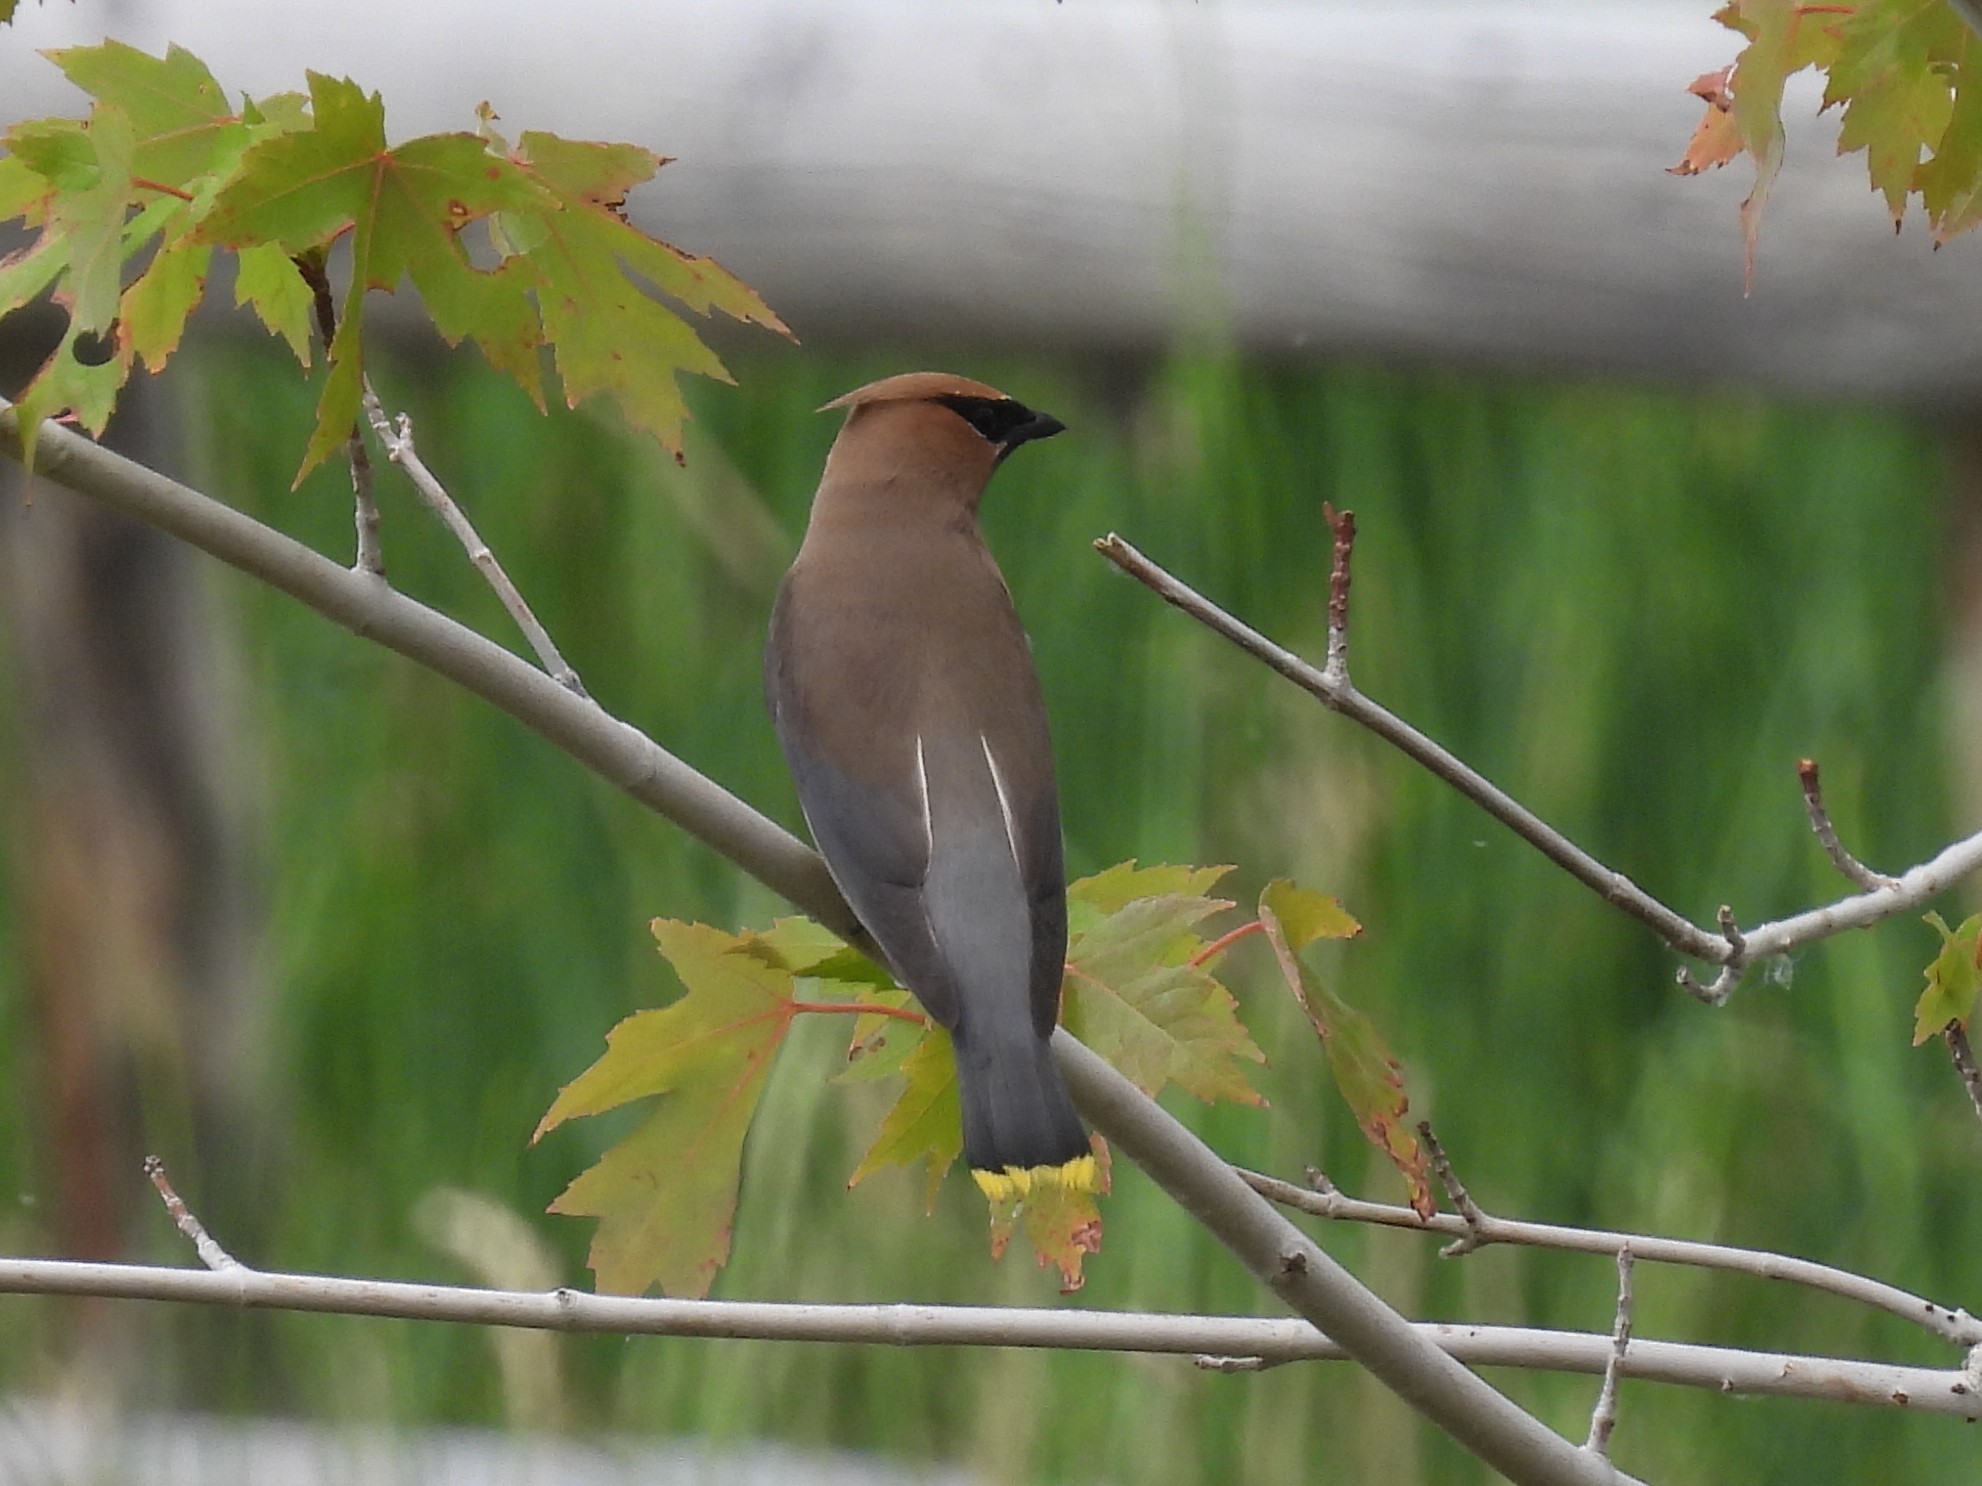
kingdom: Animalia
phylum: Chordata
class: Aves
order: Passeriformes
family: Bombycillidae
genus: Bombycilla
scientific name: Bombycilla cedrorum
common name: Cedar waxwing
